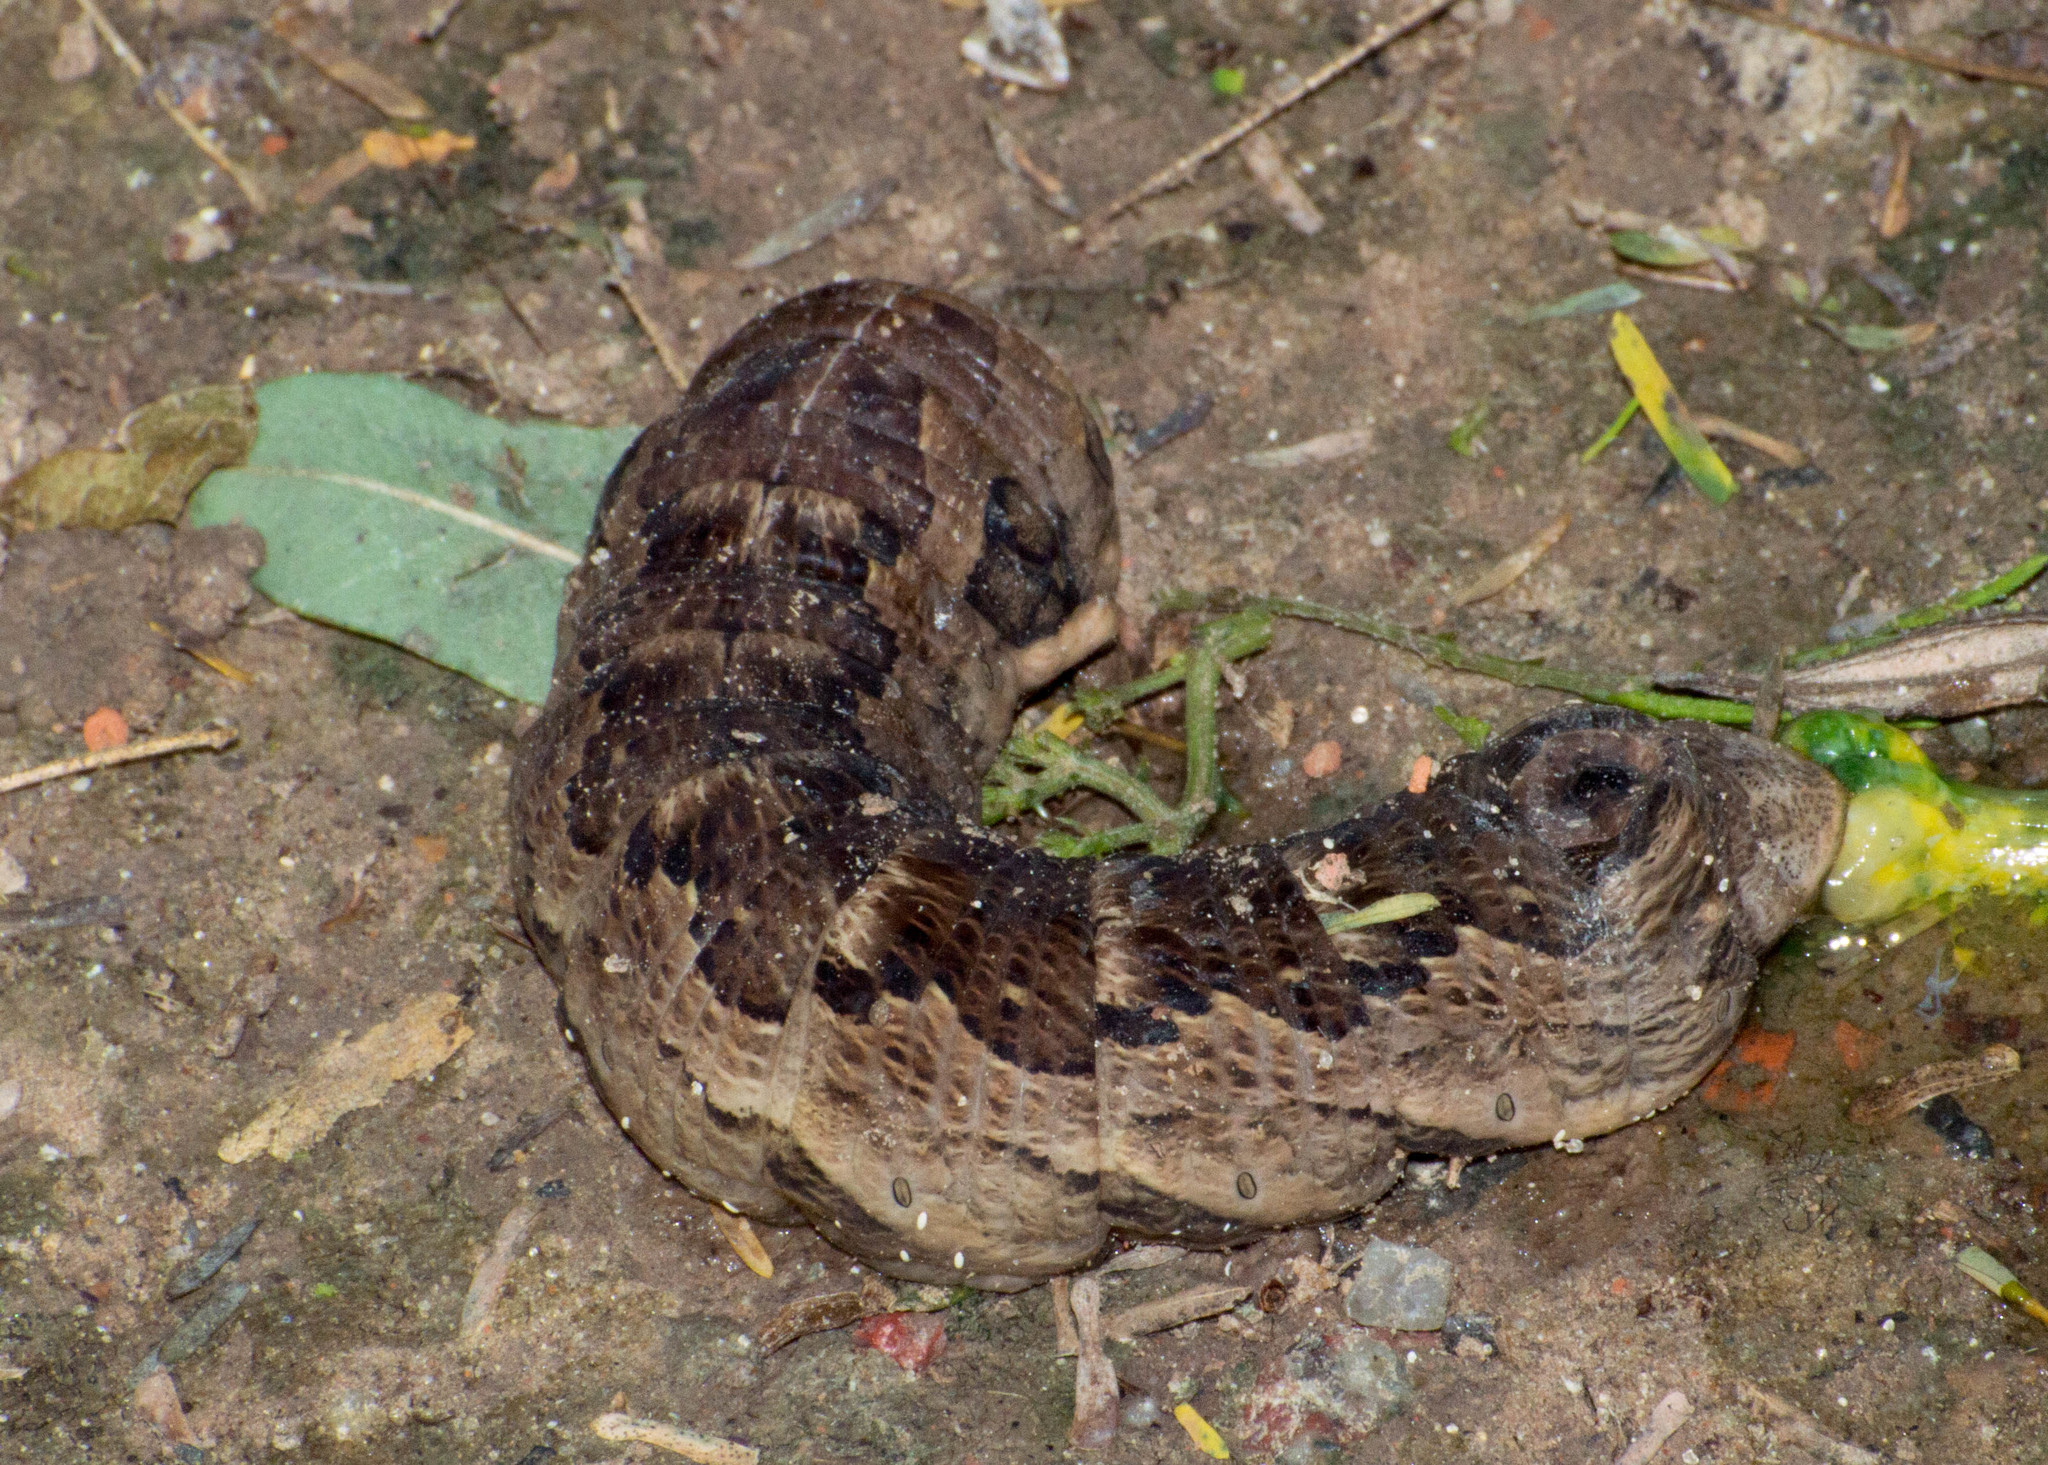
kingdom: Animalia
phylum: Arthropoda
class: Insecta
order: Lepidoptera
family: Sphingidae
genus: Eumorpha
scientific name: Eumorpha labruscae
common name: Gaudy sphinx
